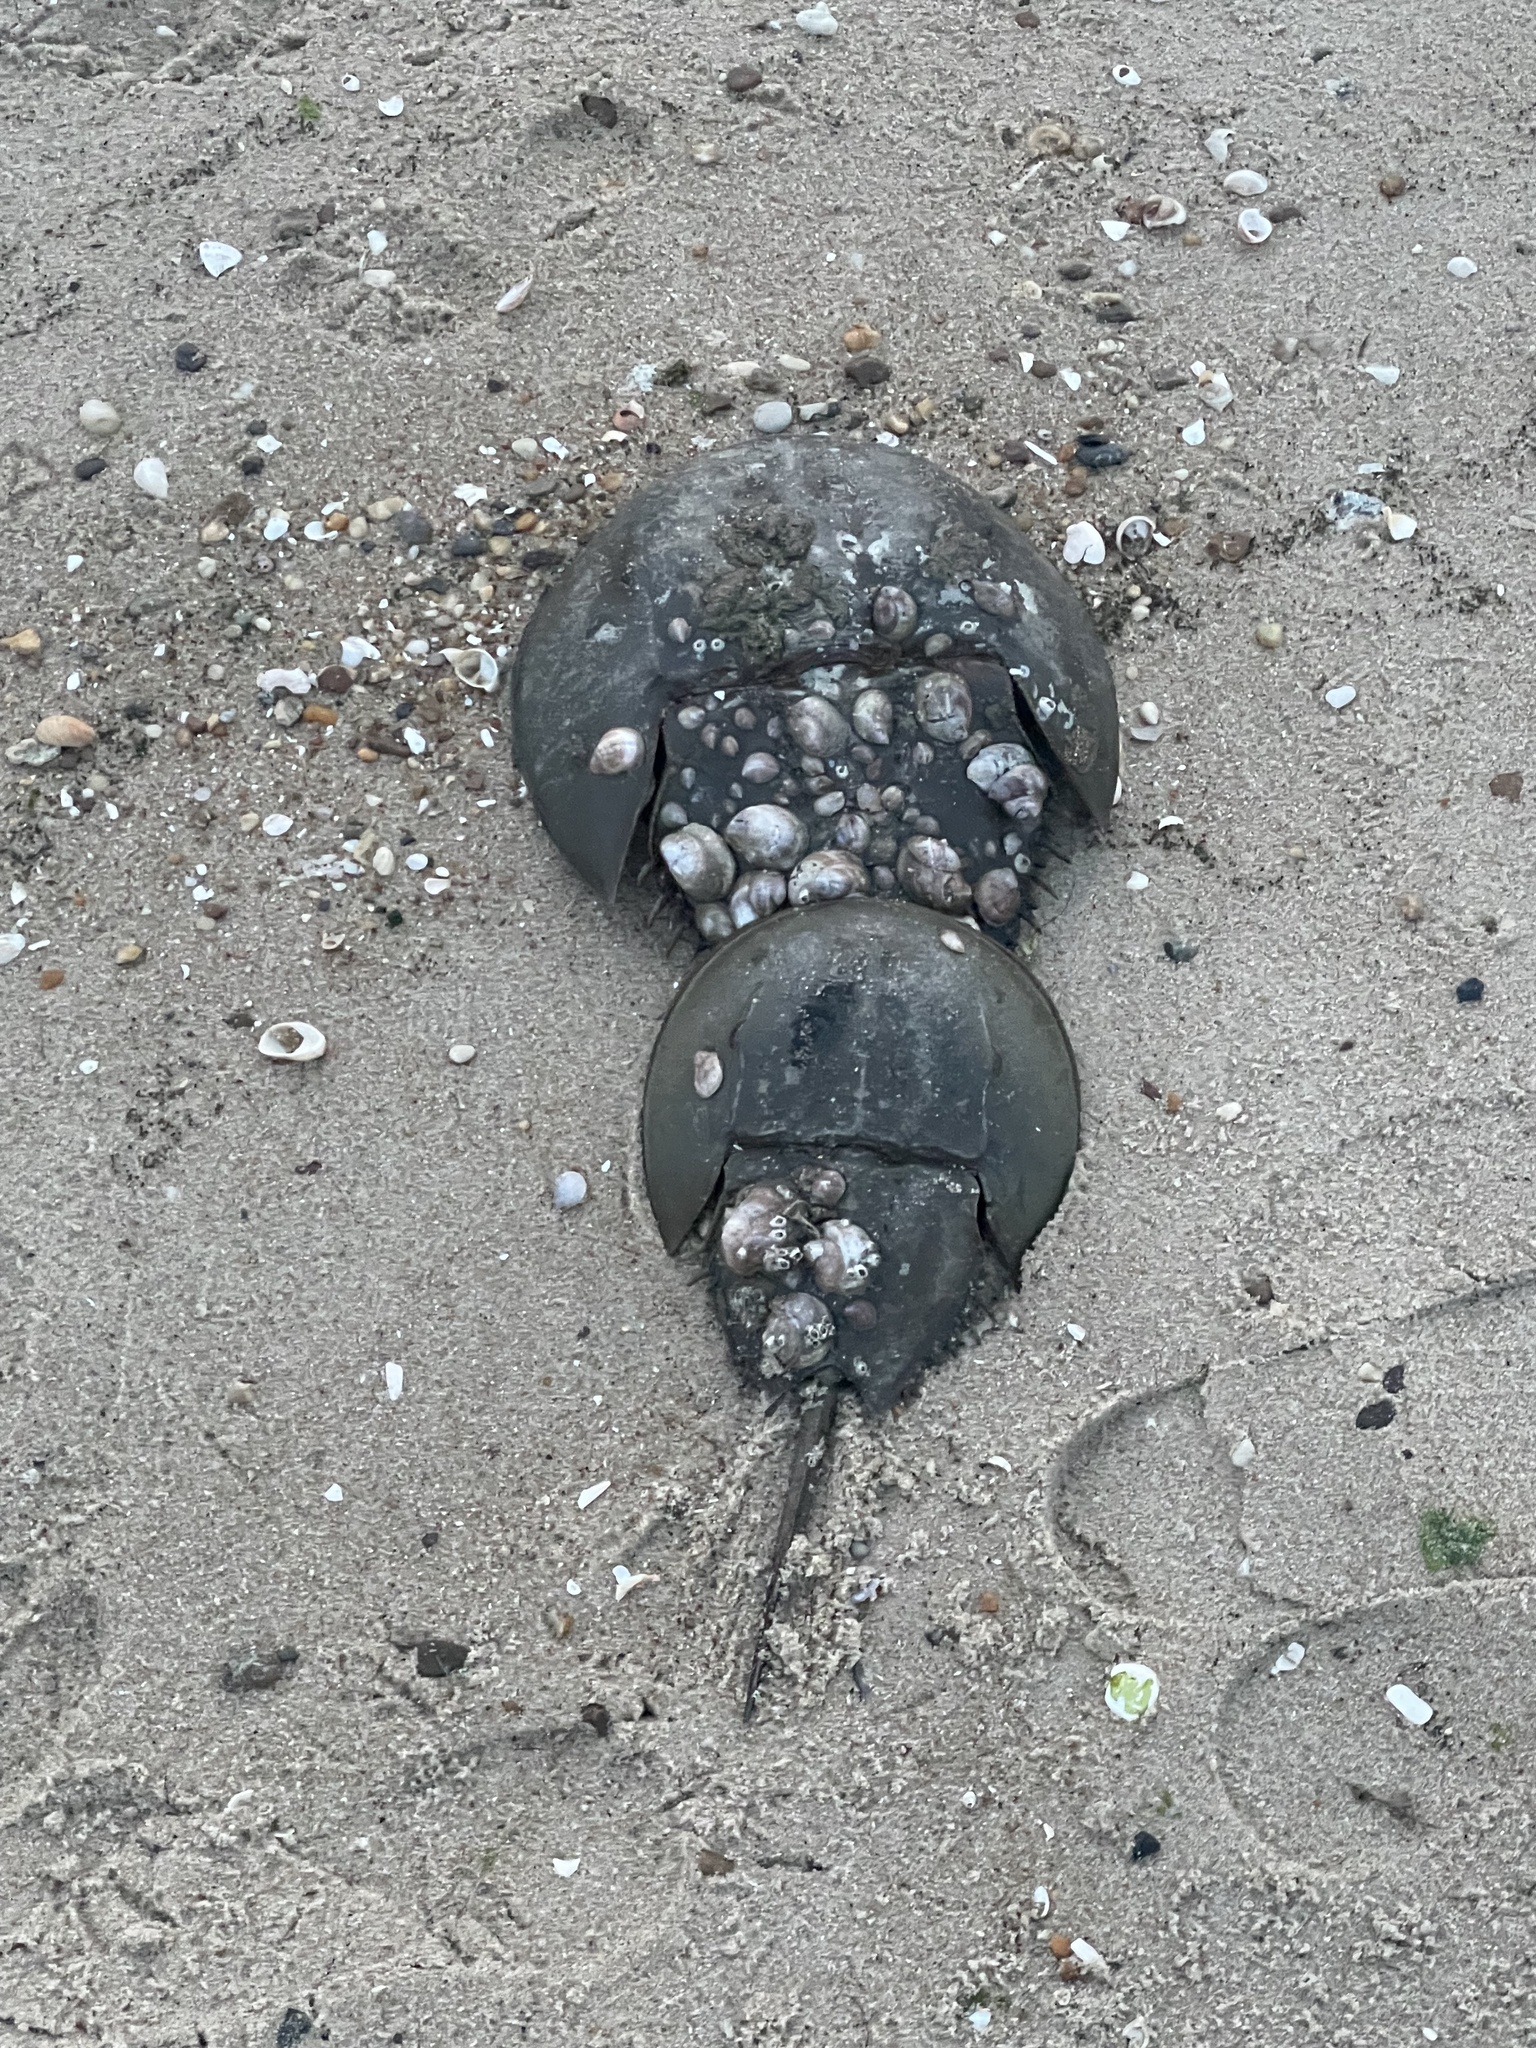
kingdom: Animalia
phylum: Arthropoda
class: Merostomata
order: Xiphosurida
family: Limulidae
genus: Limulus
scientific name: Limulus polyphemus
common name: Horseshoe crab
